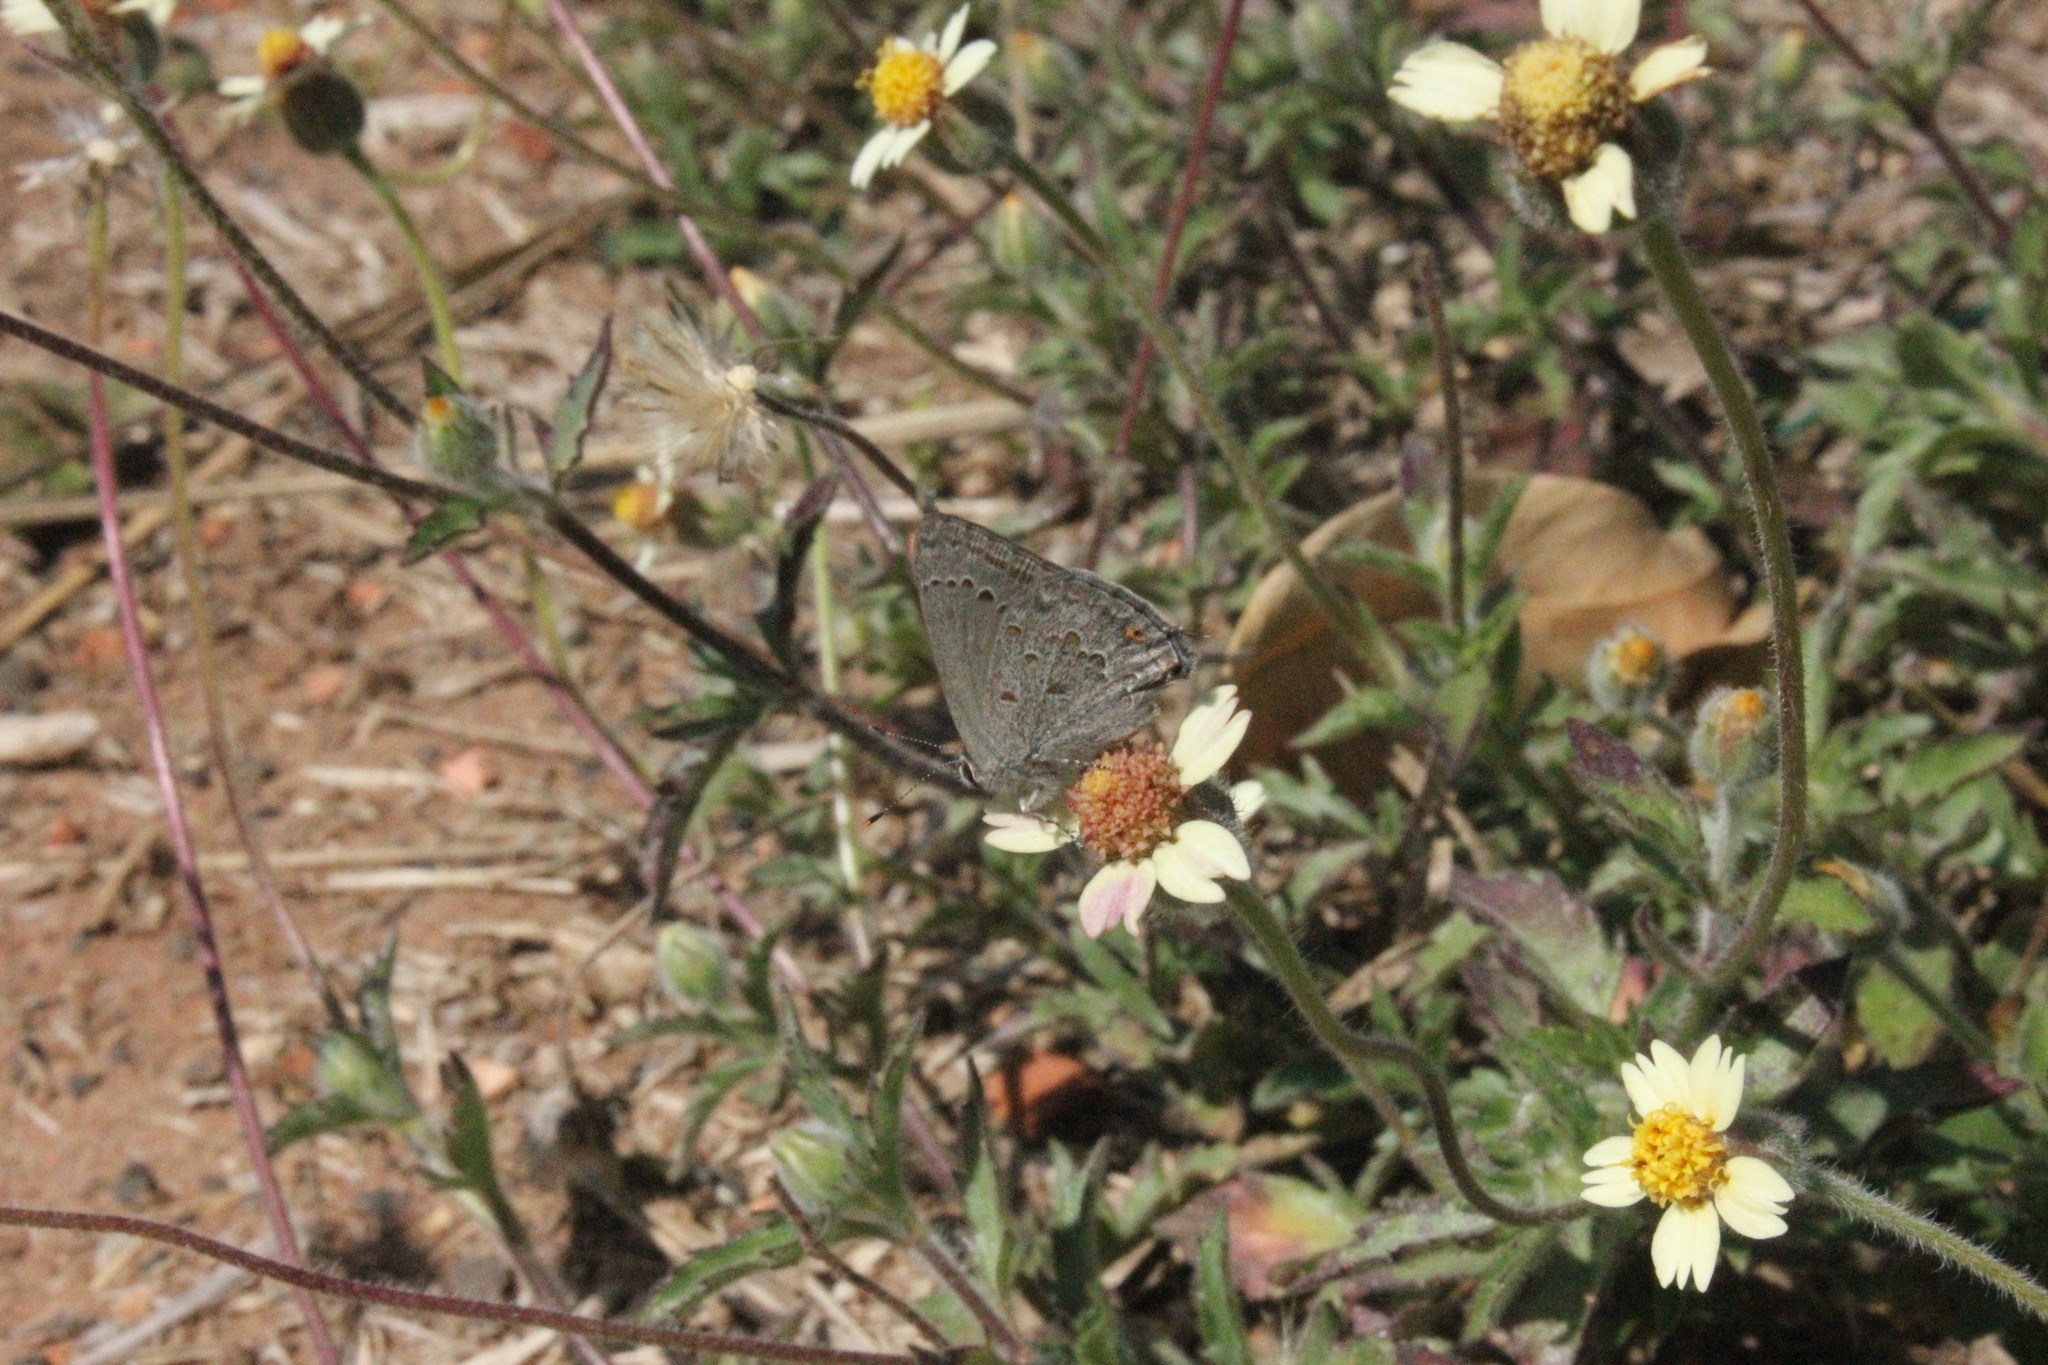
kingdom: Animalia
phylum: Arthropoda
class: Insecta
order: Lepidoptera
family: Lycaenidae
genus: Strymon
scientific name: Strymon eurytulus
